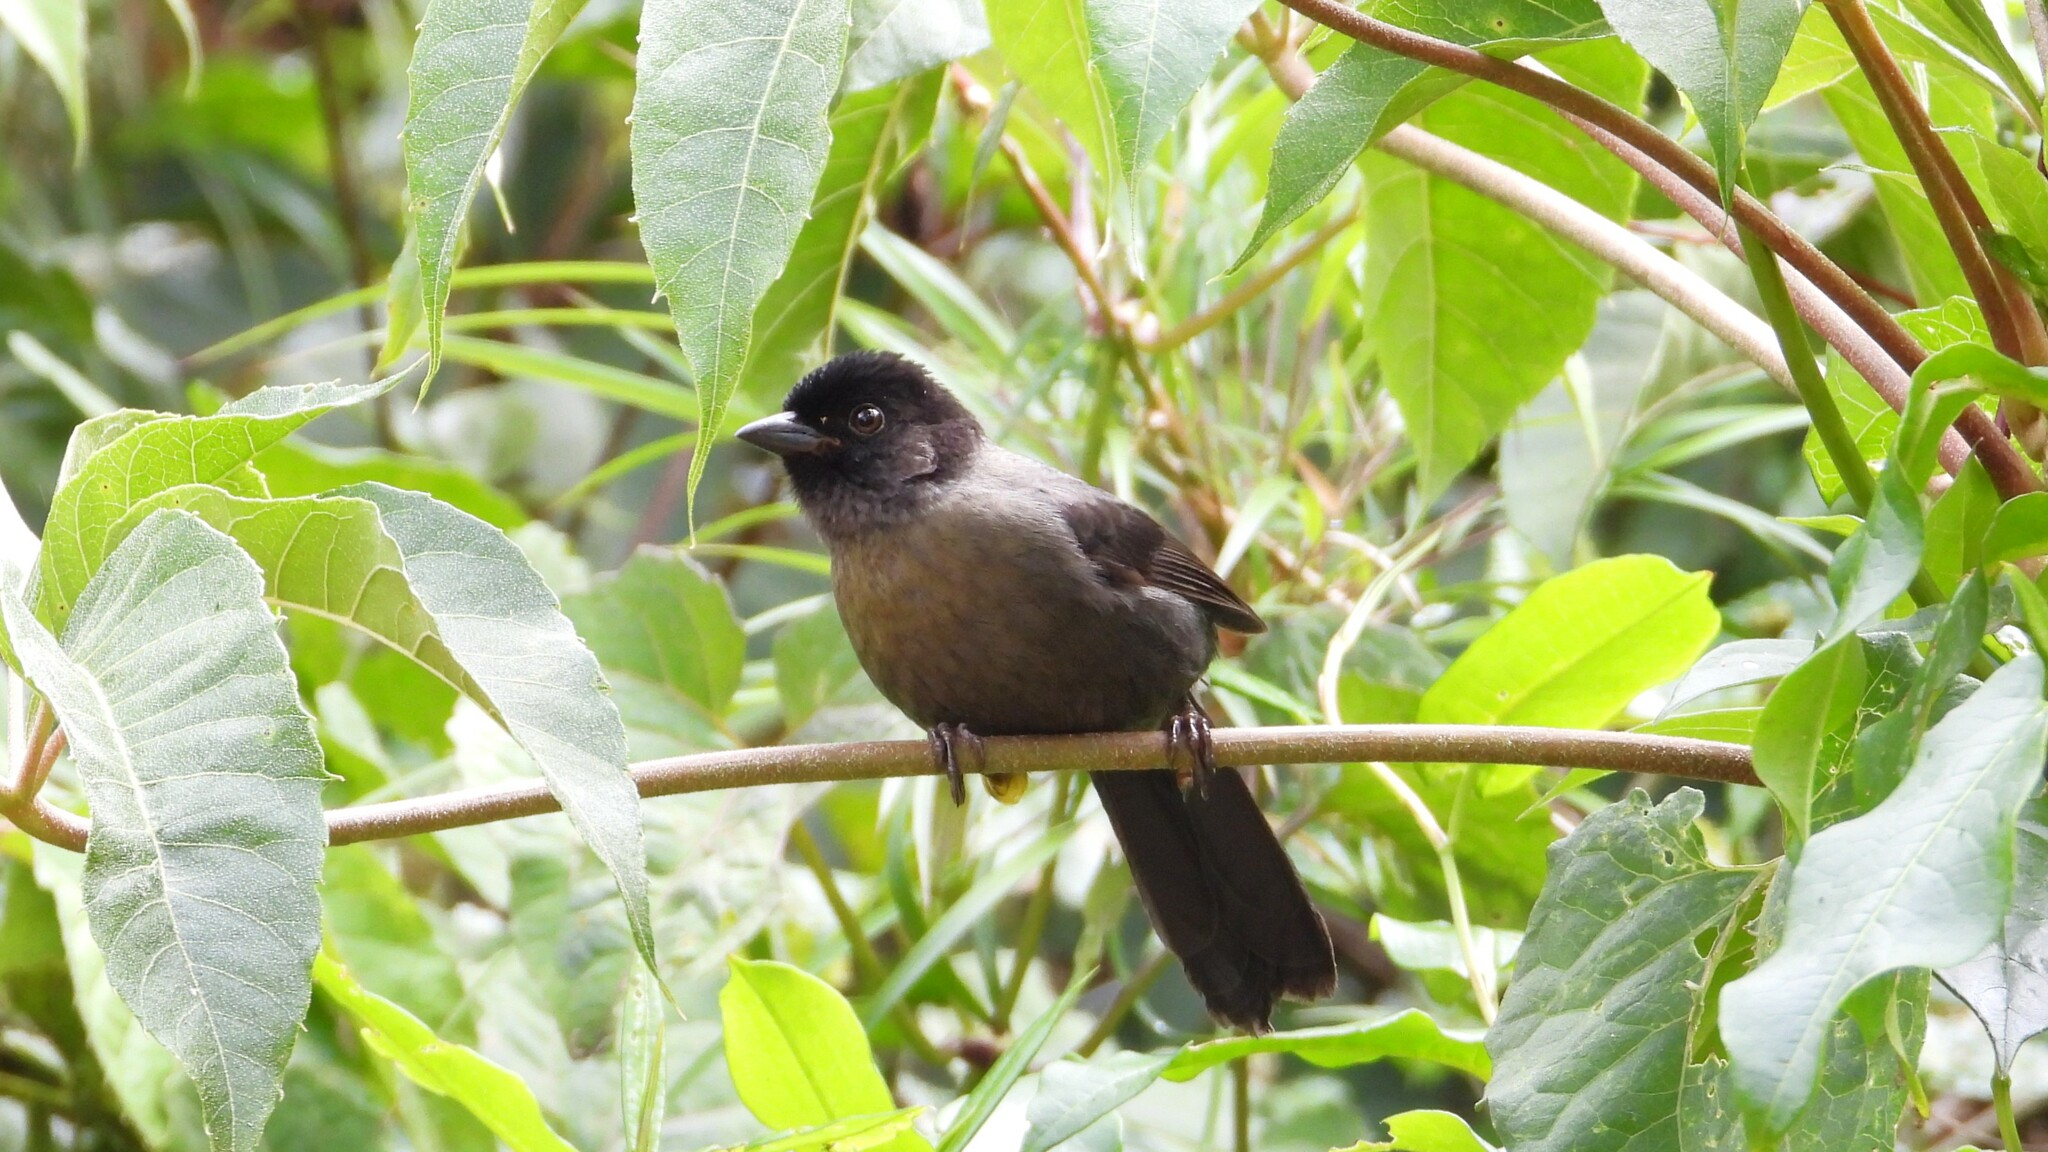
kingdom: Animalia
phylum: Chordata
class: Aves
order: Passeriformes
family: Passerellidae
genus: Atlapetes
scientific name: Atlapetes tibialis
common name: Yellow-thighed brushfinch
